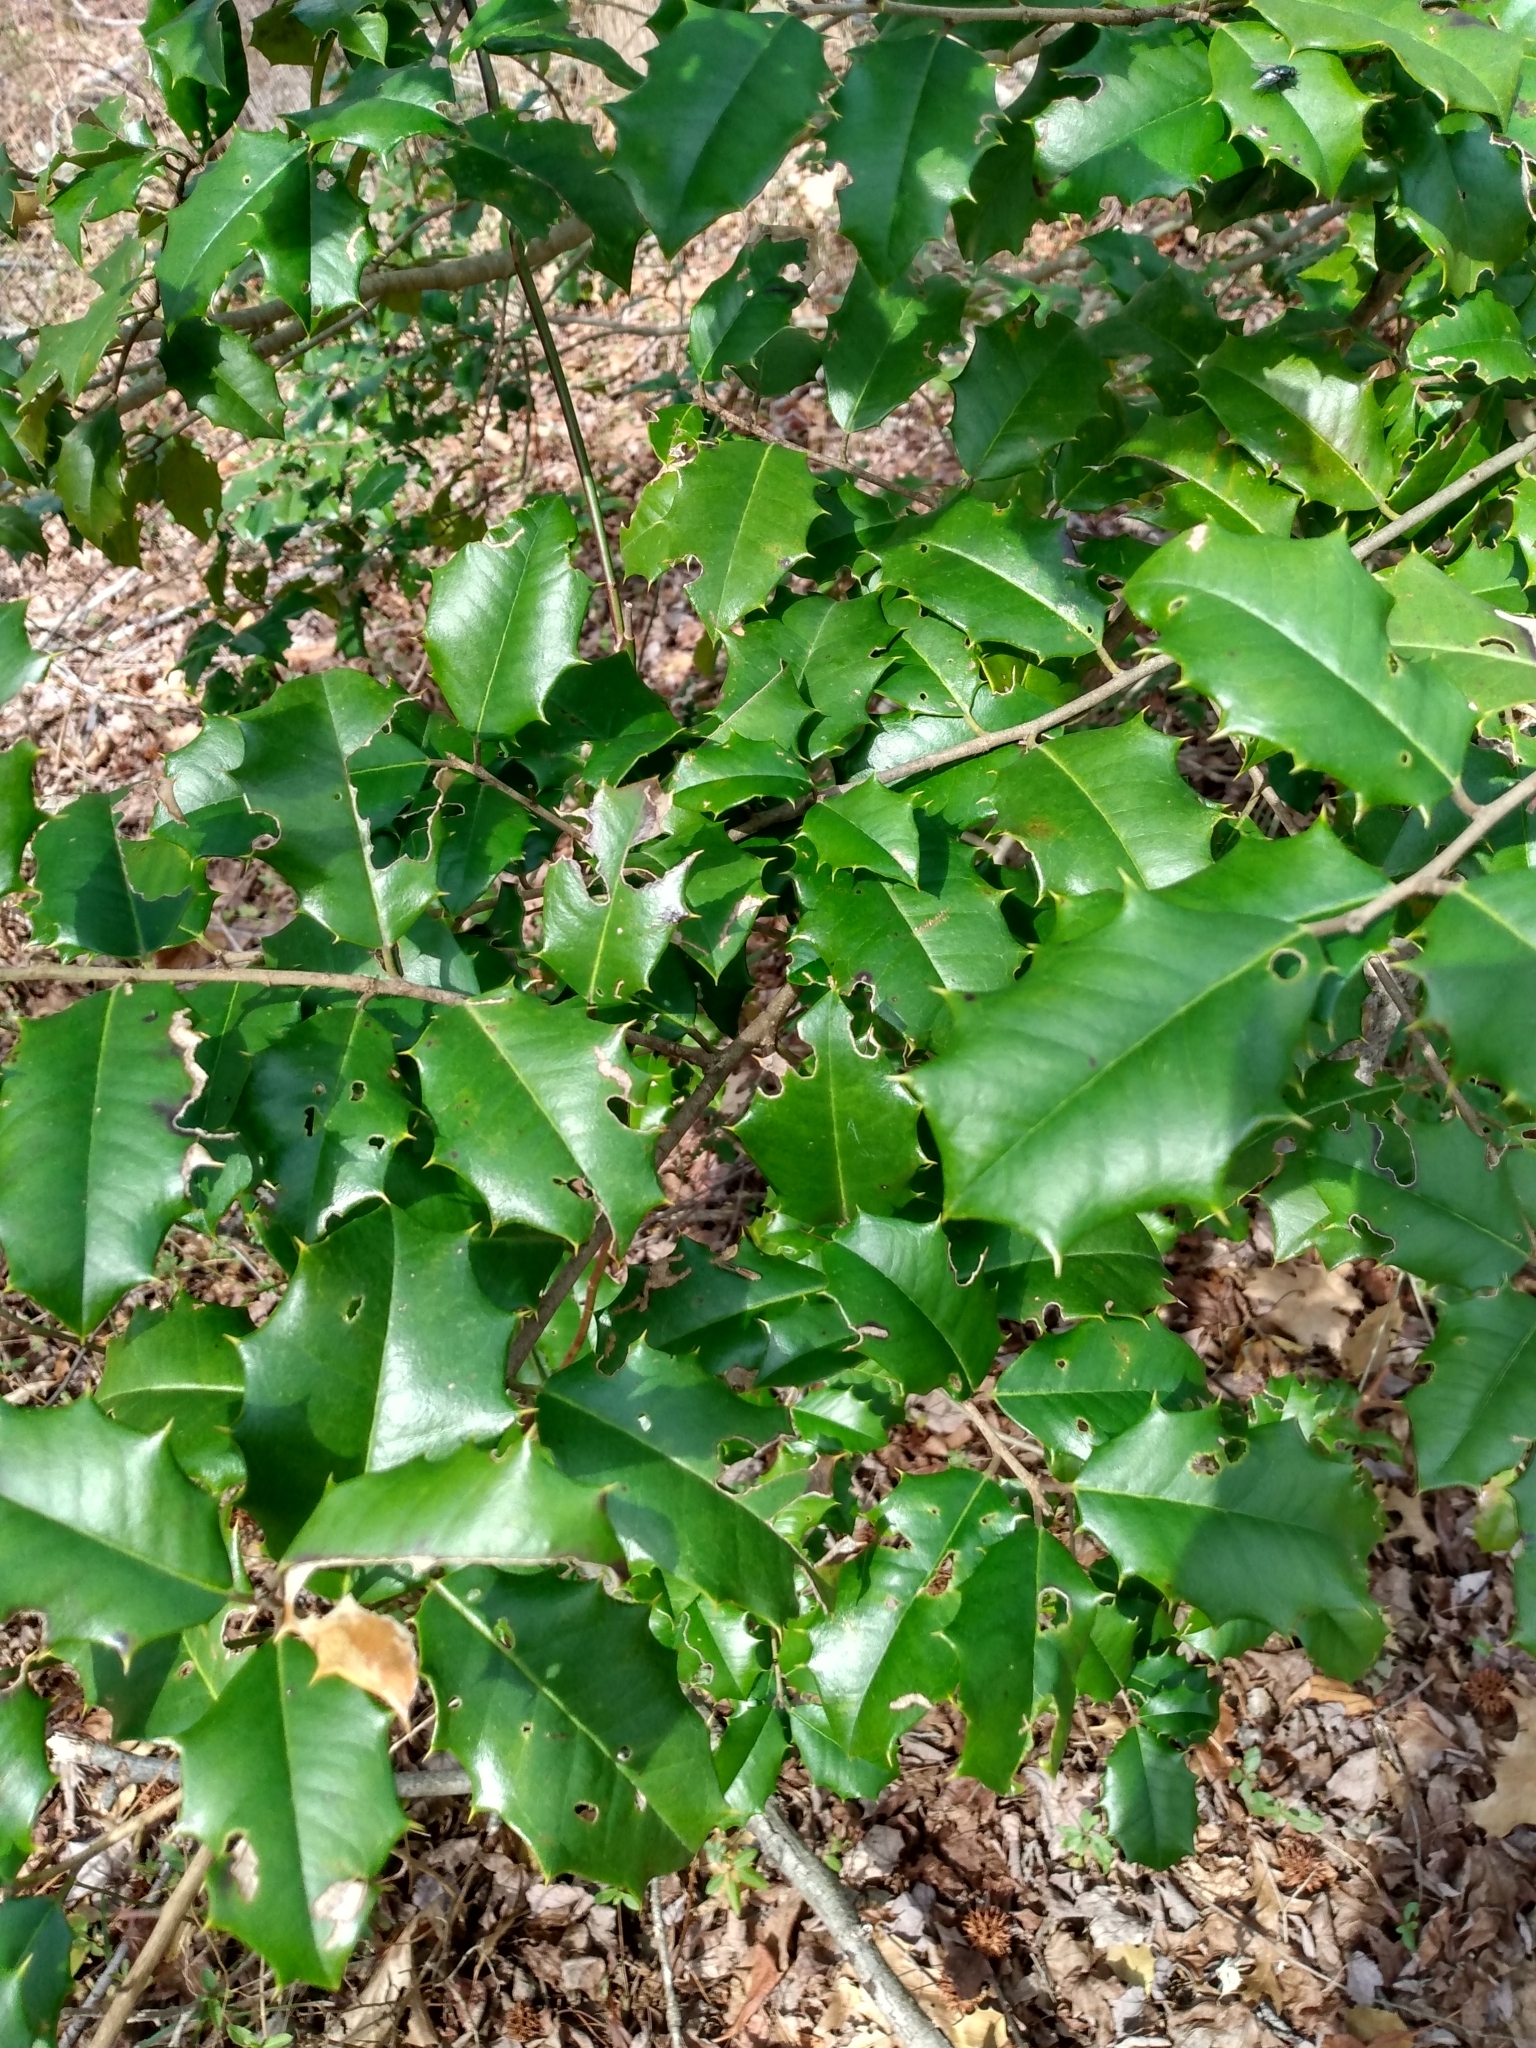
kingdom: Plantae
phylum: Tracheophyta
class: Magnoliopsida
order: Aquifoliales
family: Aquifoliaceae
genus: Ilex
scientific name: Ilex opaca
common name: American holly
